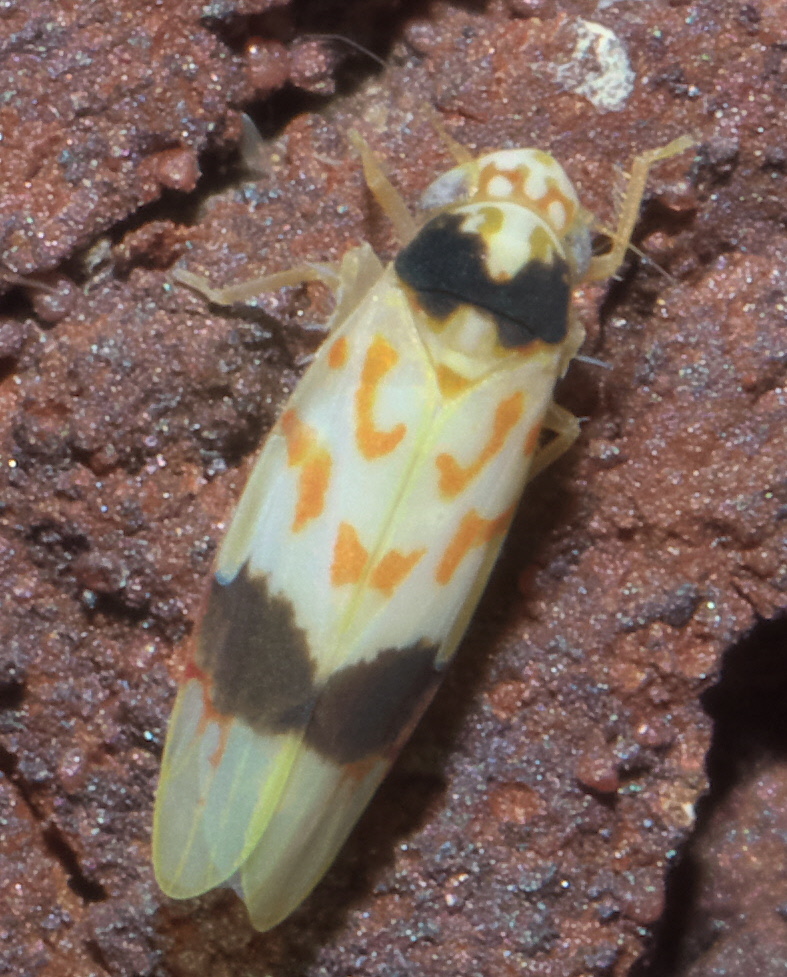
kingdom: Animalia
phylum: Arthropoda
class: Insecta
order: Hemiptera
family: Cicadellidae
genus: Eratoneura
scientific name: Eratoneura morgani
